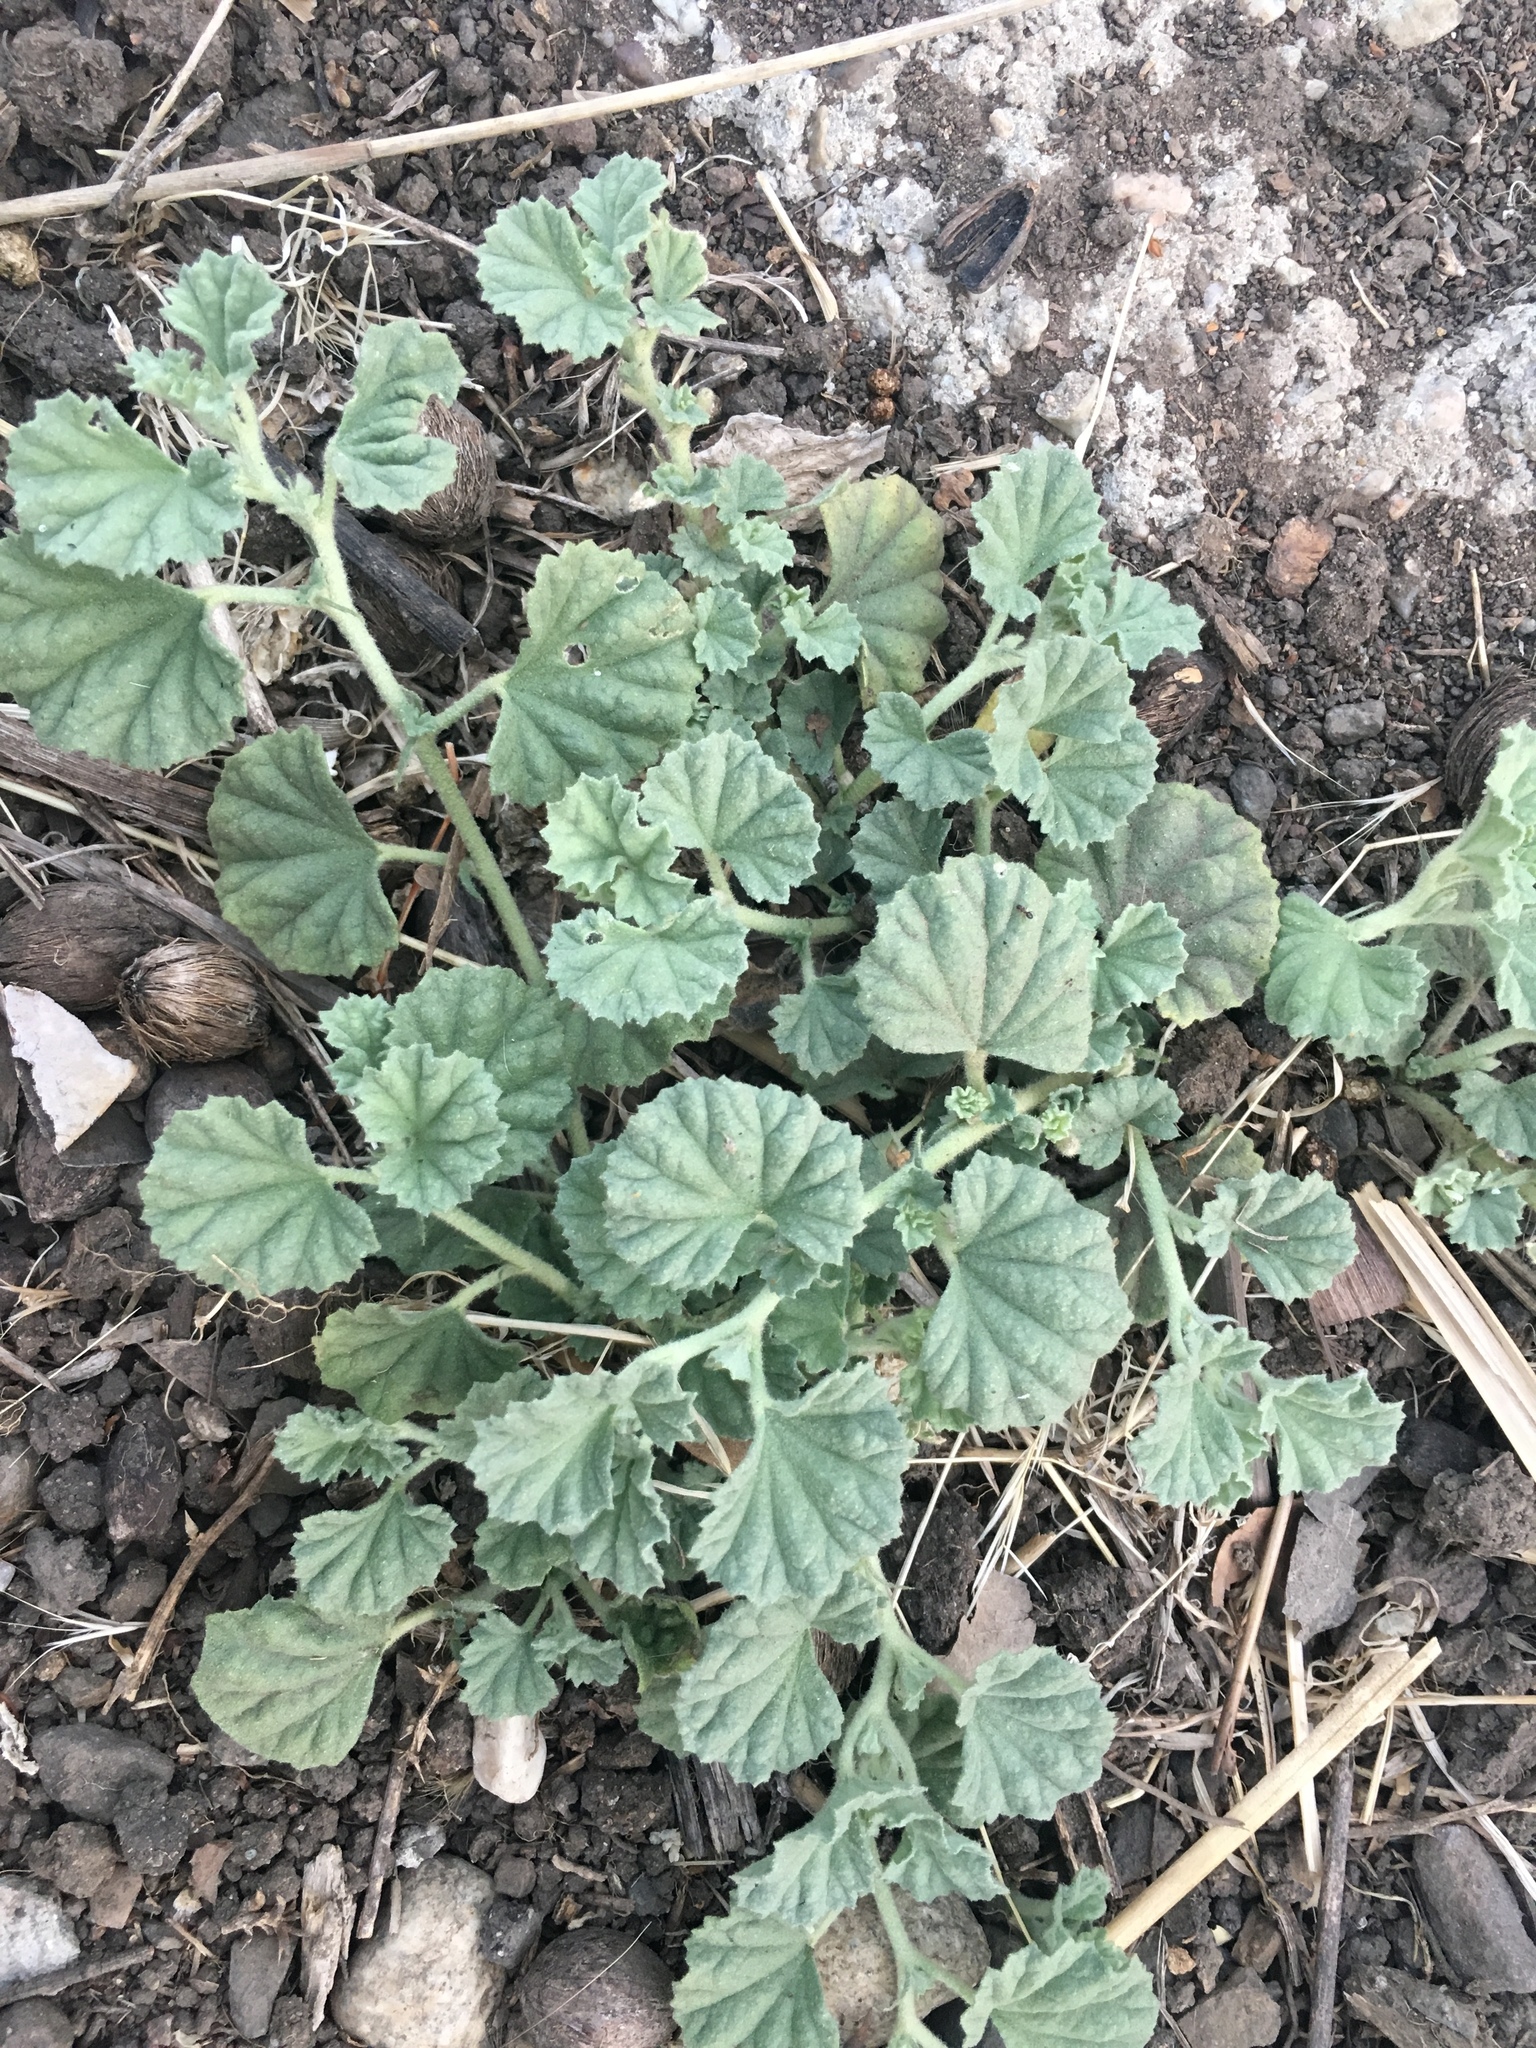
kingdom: Plantae
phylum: Tracheophyta
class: Magnoliopsida
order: Malvales
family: Malvaceae
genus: Malvella
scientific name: Malvella leprosa
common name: Alkali-mallow
